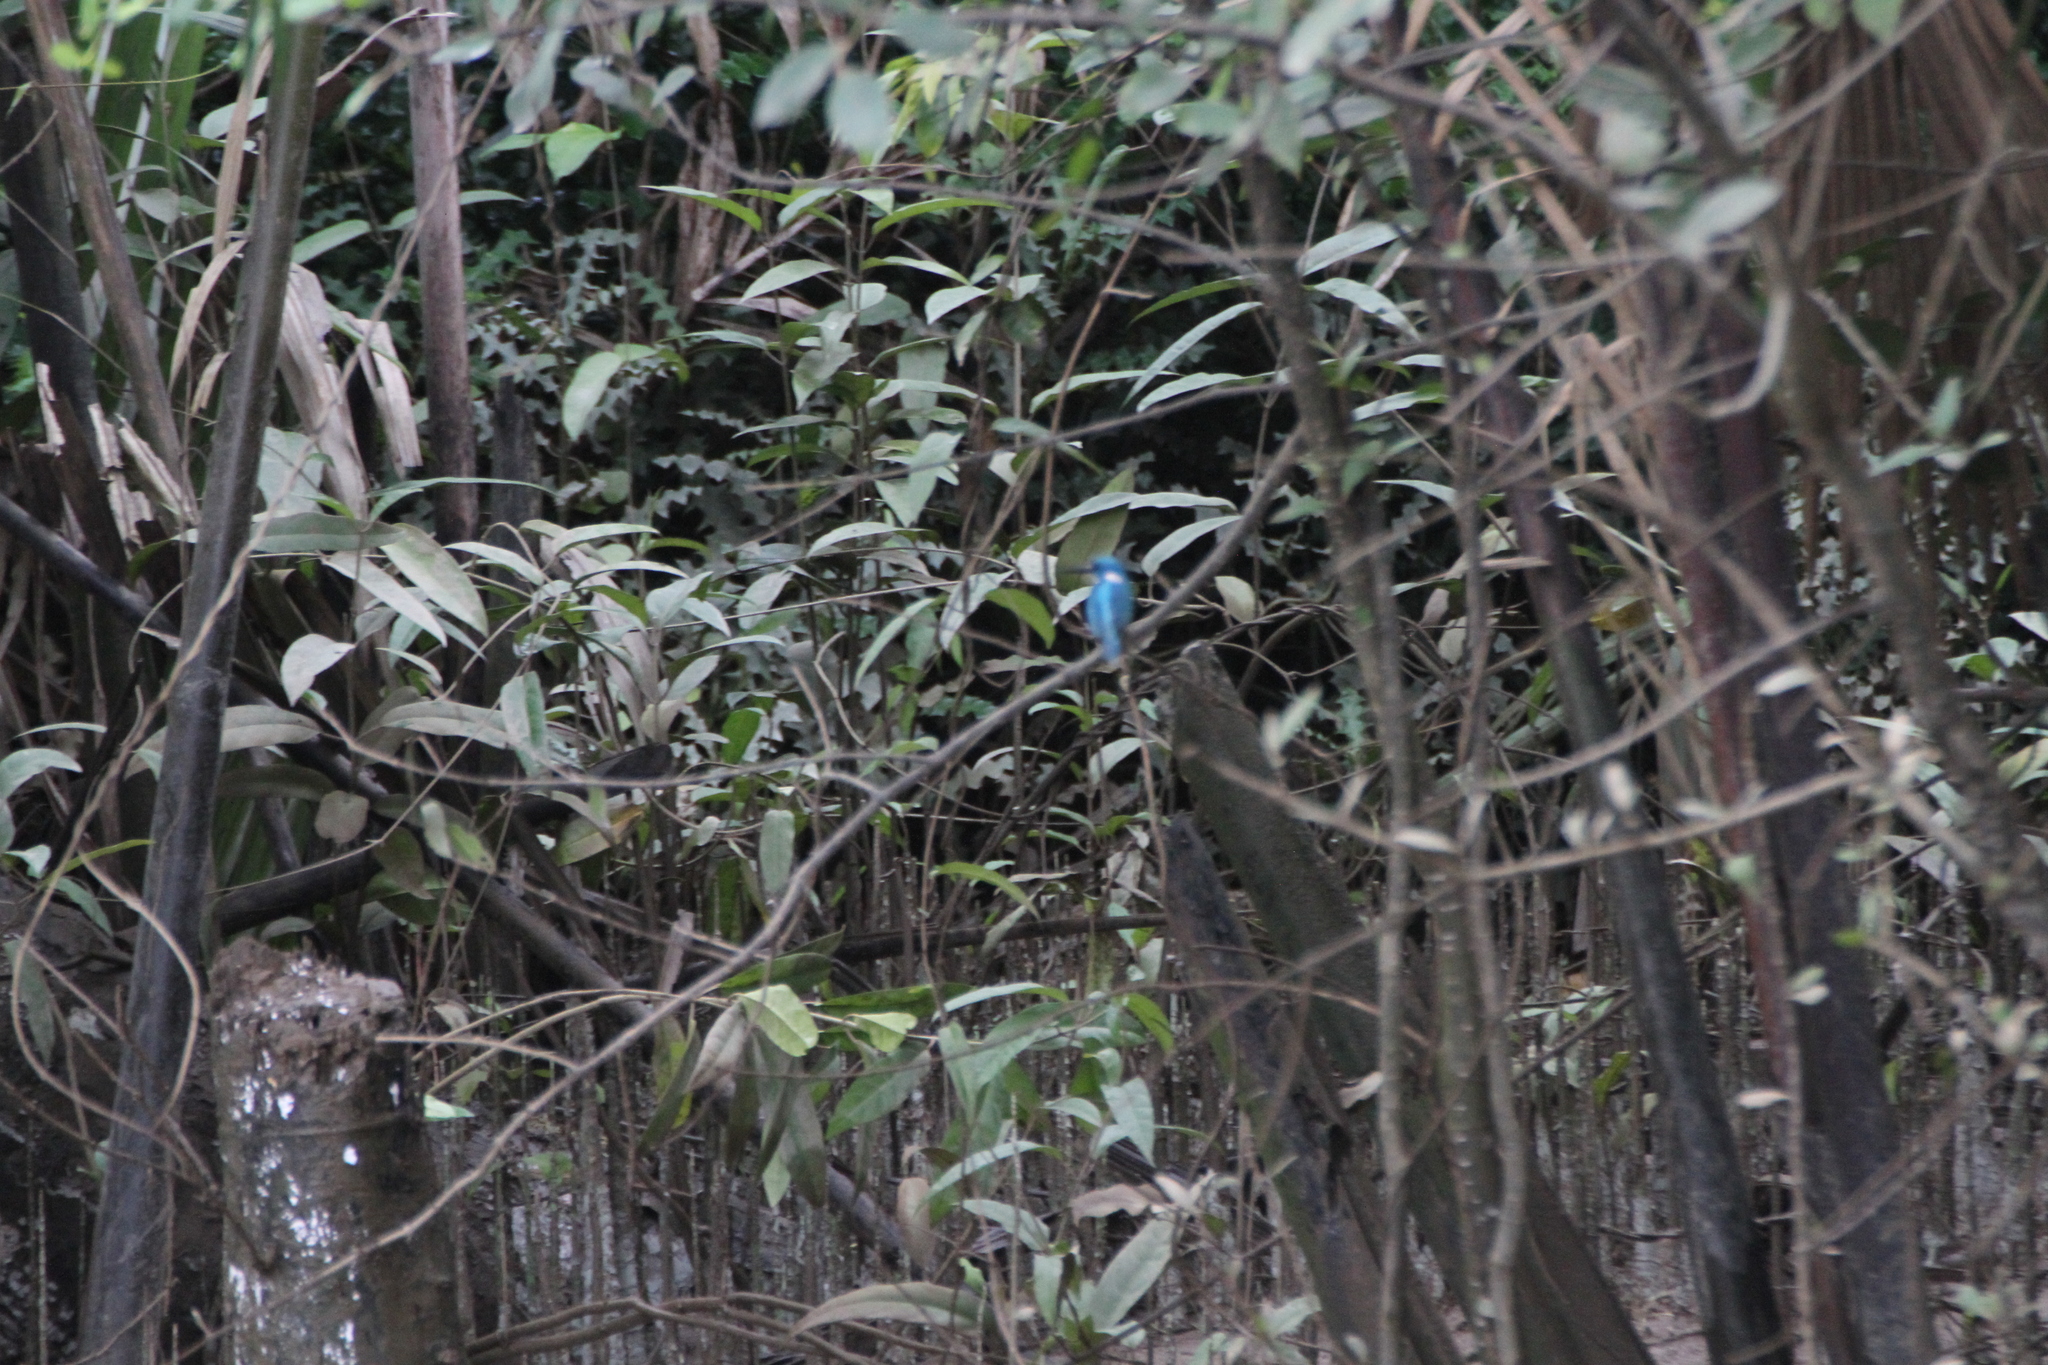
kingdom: Animalia
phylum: Chordata
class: Aves
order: Coraciiformes
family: Alcedinidae
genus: Alcedo
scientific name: Alcedo coerulescens
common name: Cerulean kingfisher
